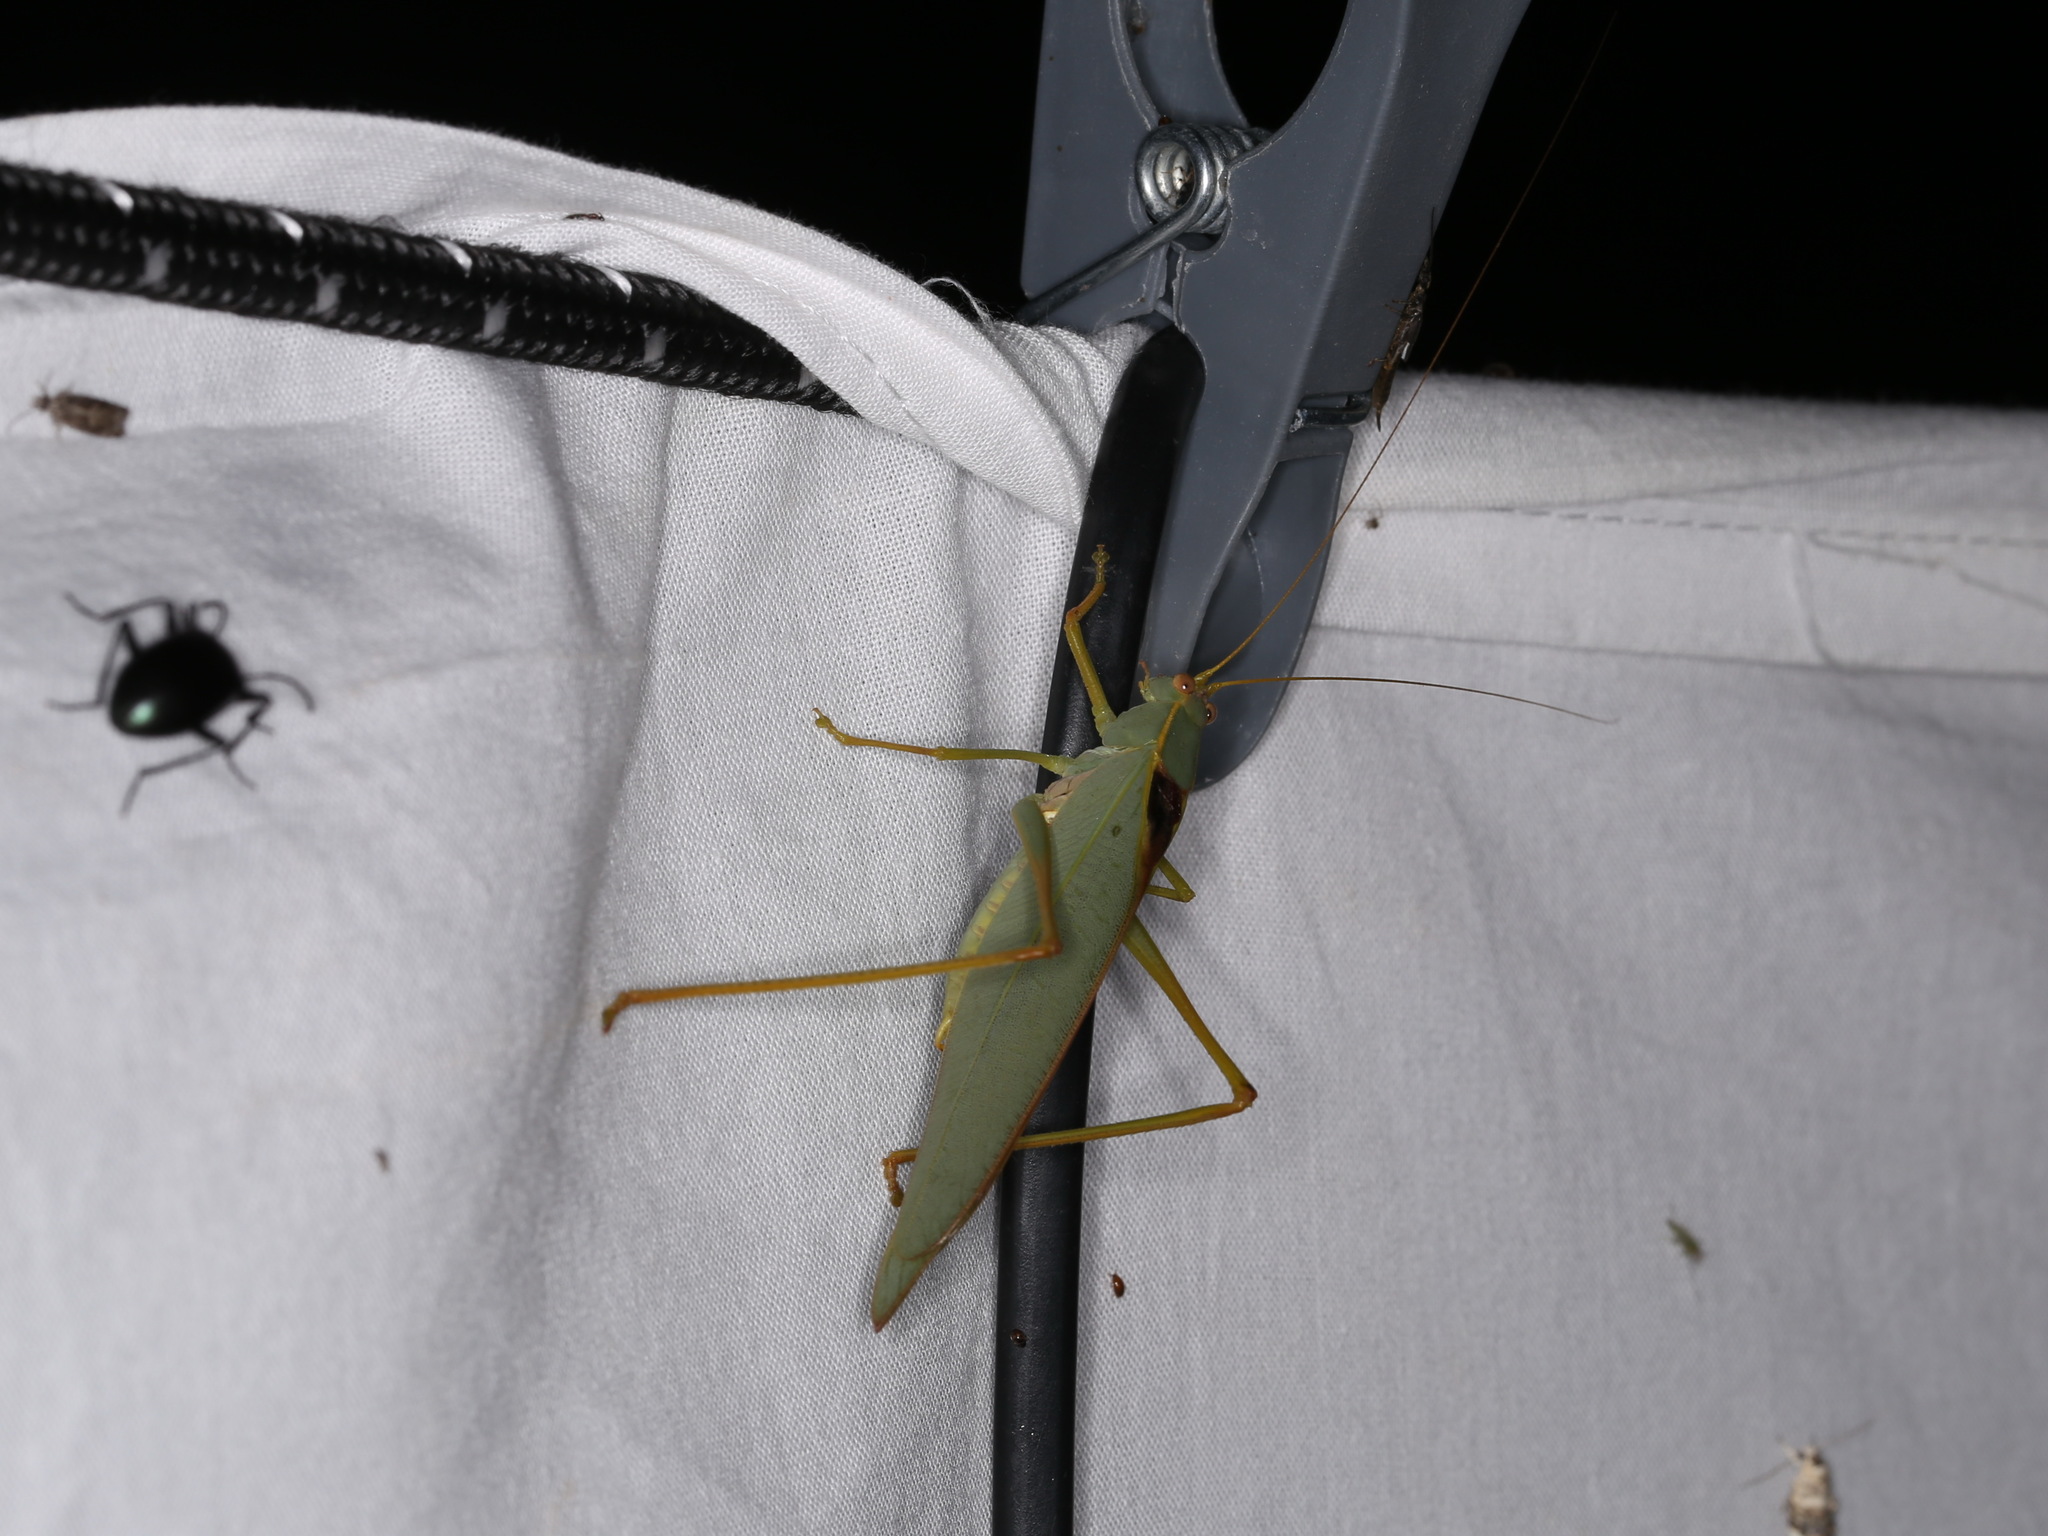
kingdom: Animalia
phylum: Arthropoda
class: Insecta
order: Orthoptera
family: Tettigoniidae
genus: Torbia
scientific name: Torbia viridissima
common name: Non-predaceous gum leaf katydid
